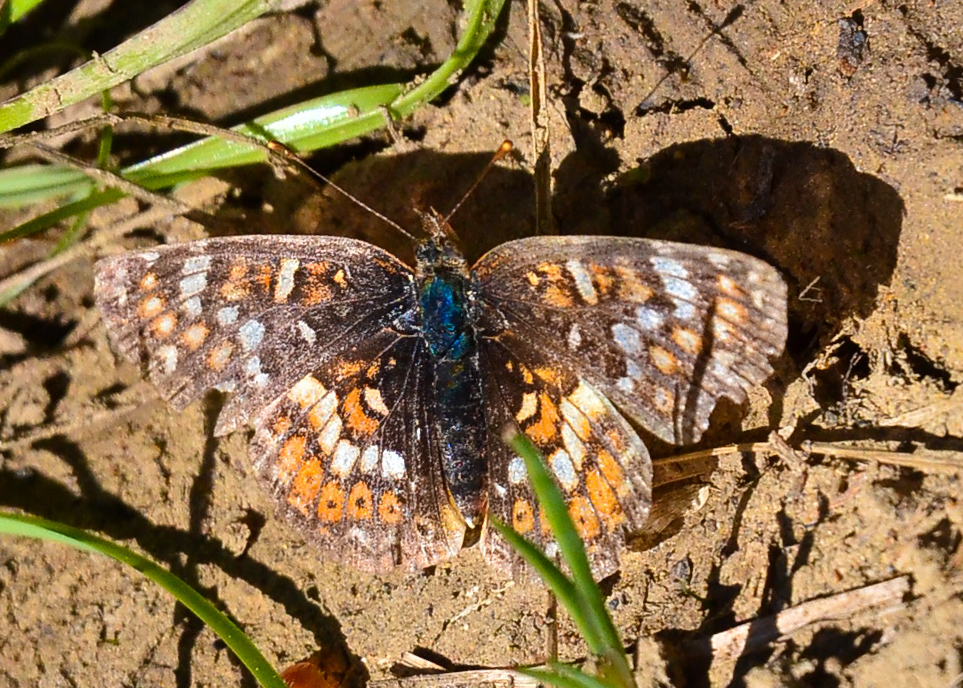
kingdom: Animalia
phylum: Arthropoda
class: Insecta
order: Lepidoptera
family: Nymphalidae
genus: Phyciodes
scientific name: Phyciodes tharos
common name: Pearl crescent
